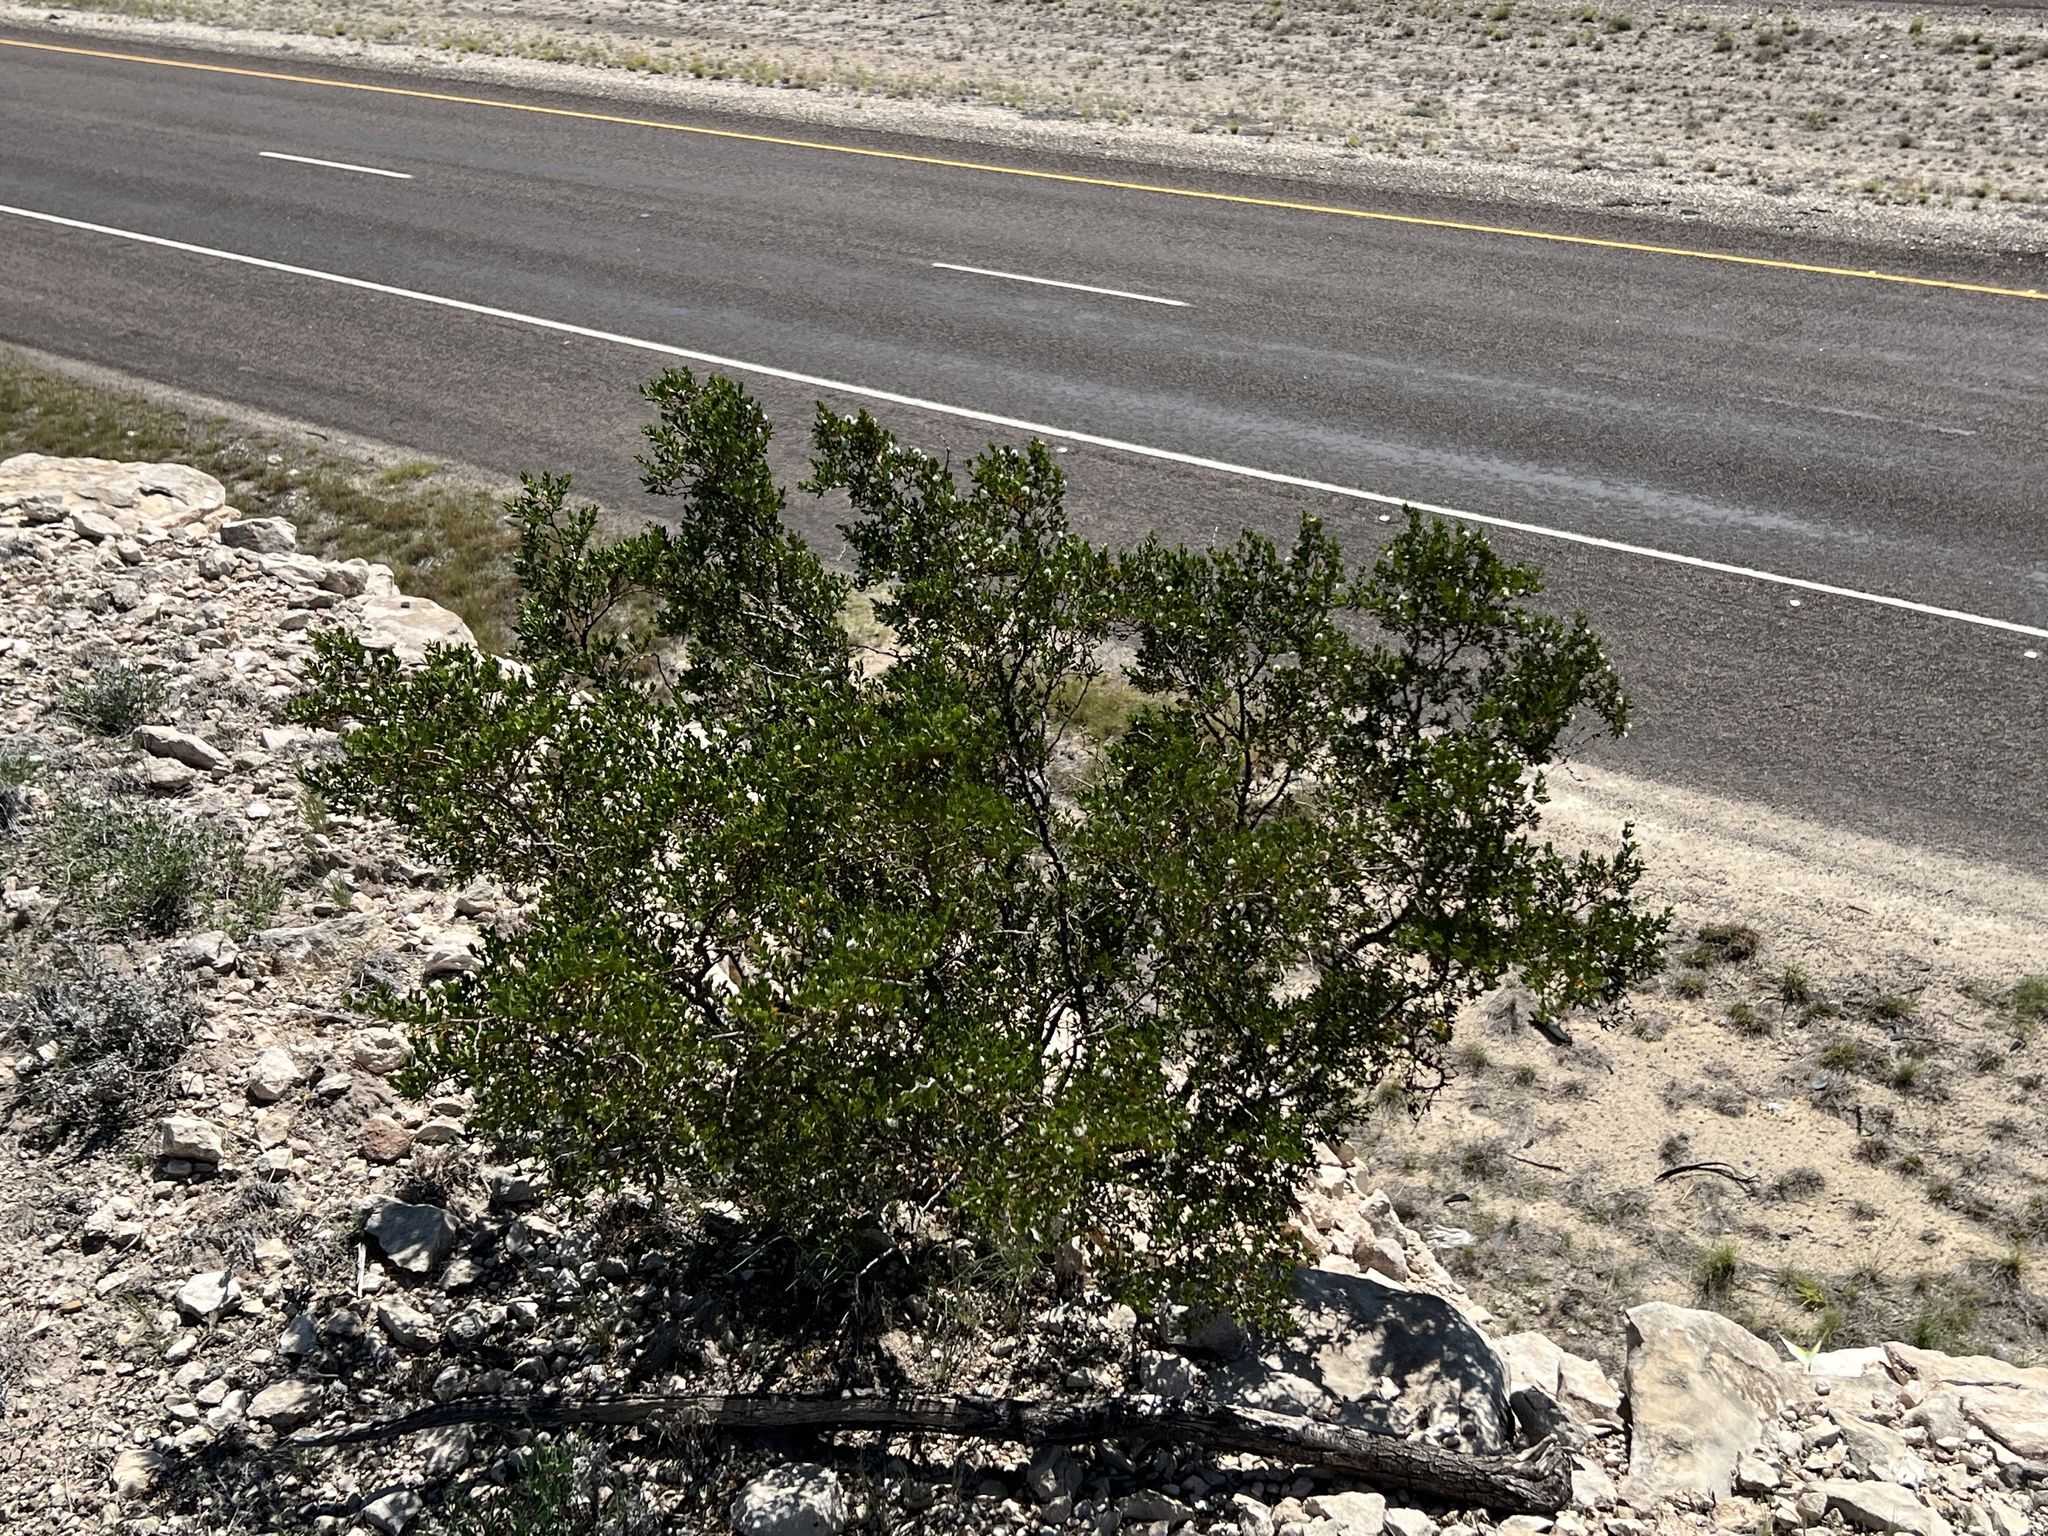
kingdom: Plantae
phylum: Tracheophyta
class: Magnoliopsida
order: Zygophyllales
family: Zygophyllaceae
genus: Larrea
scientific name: Larrea tridentata
